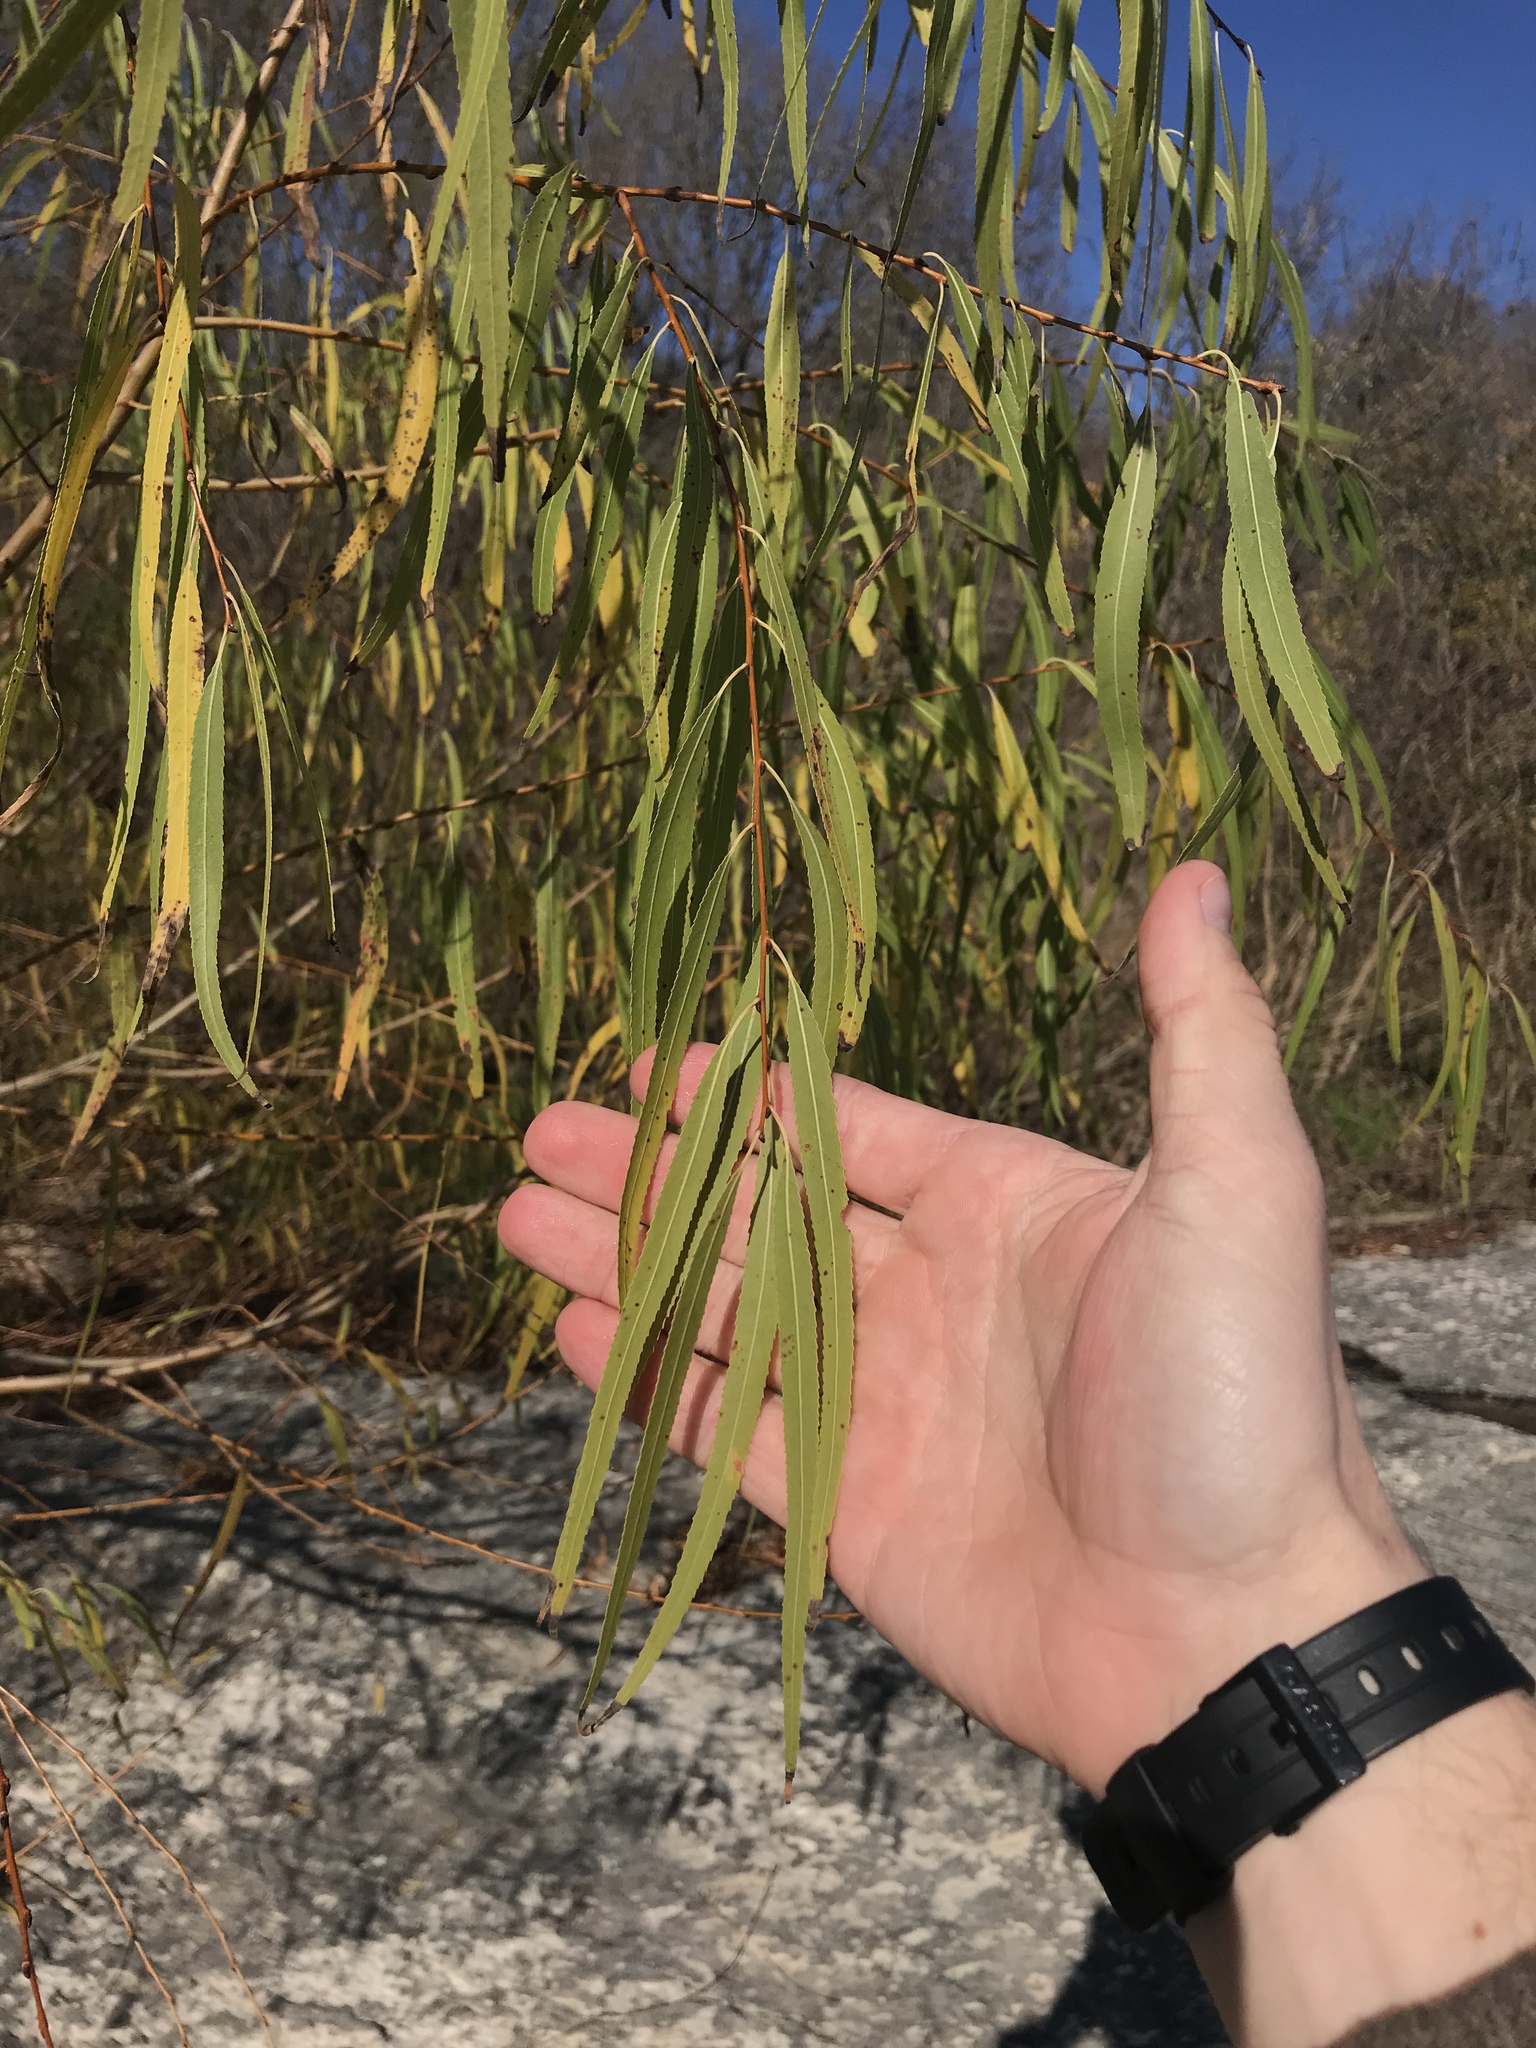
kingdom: Plantae
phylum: Tracheophyta
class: Magnoliopsida
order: Malpighiales
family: Salicaceae
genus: Salix
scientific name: Salix nigra
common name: Black willow
